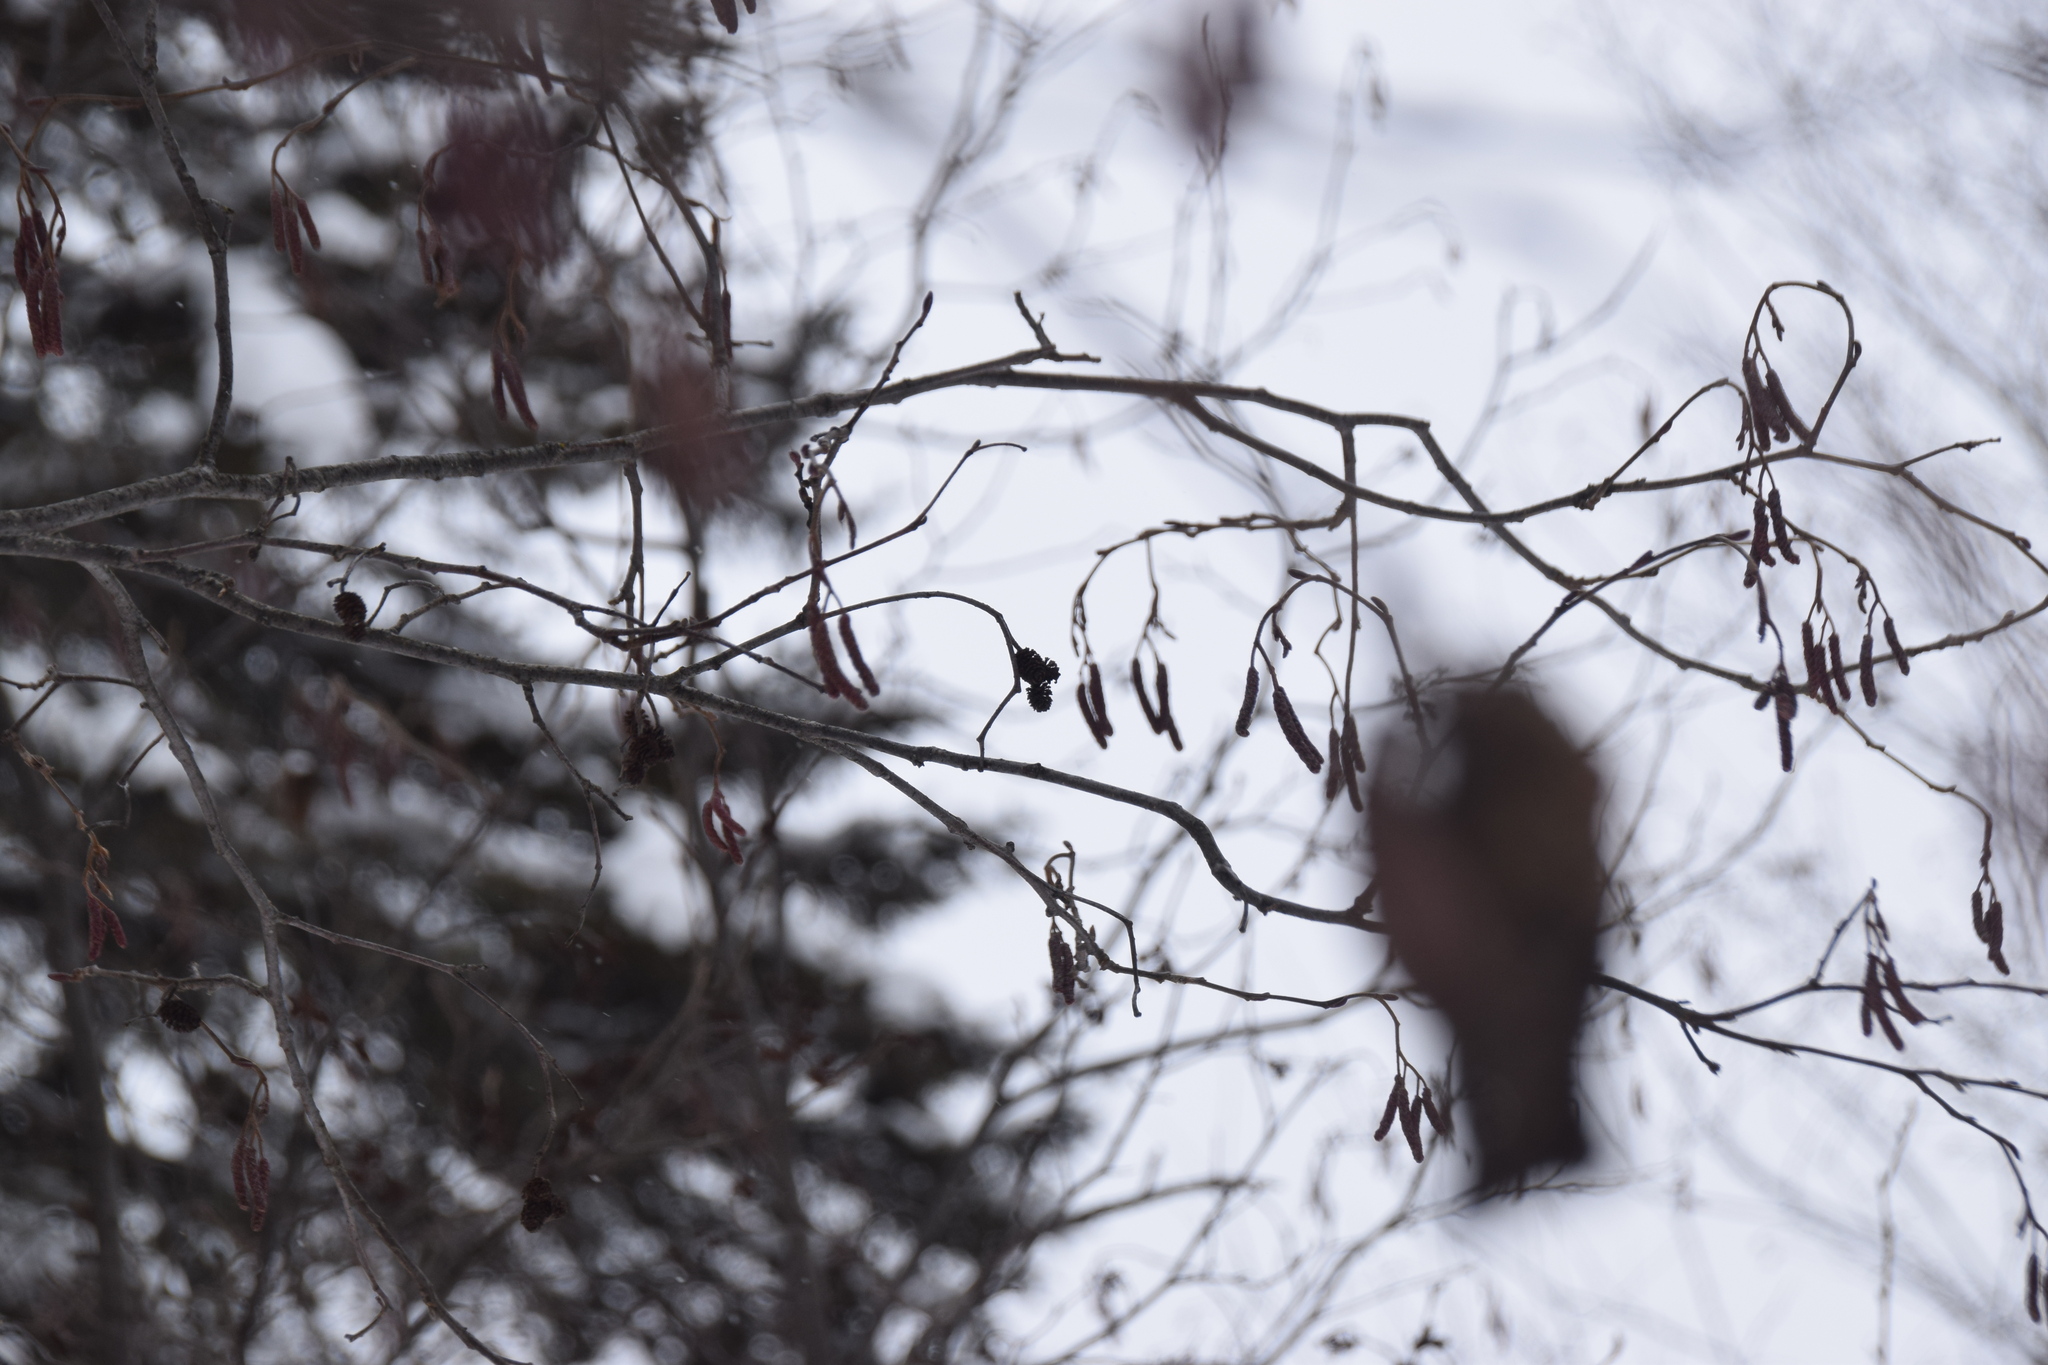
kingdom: Plantae
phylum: Tracheophyta
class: Magnoliopsida
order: Fagales
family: Betulaceae
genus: Alnus
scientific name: Alnus incana
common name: Grey alder
